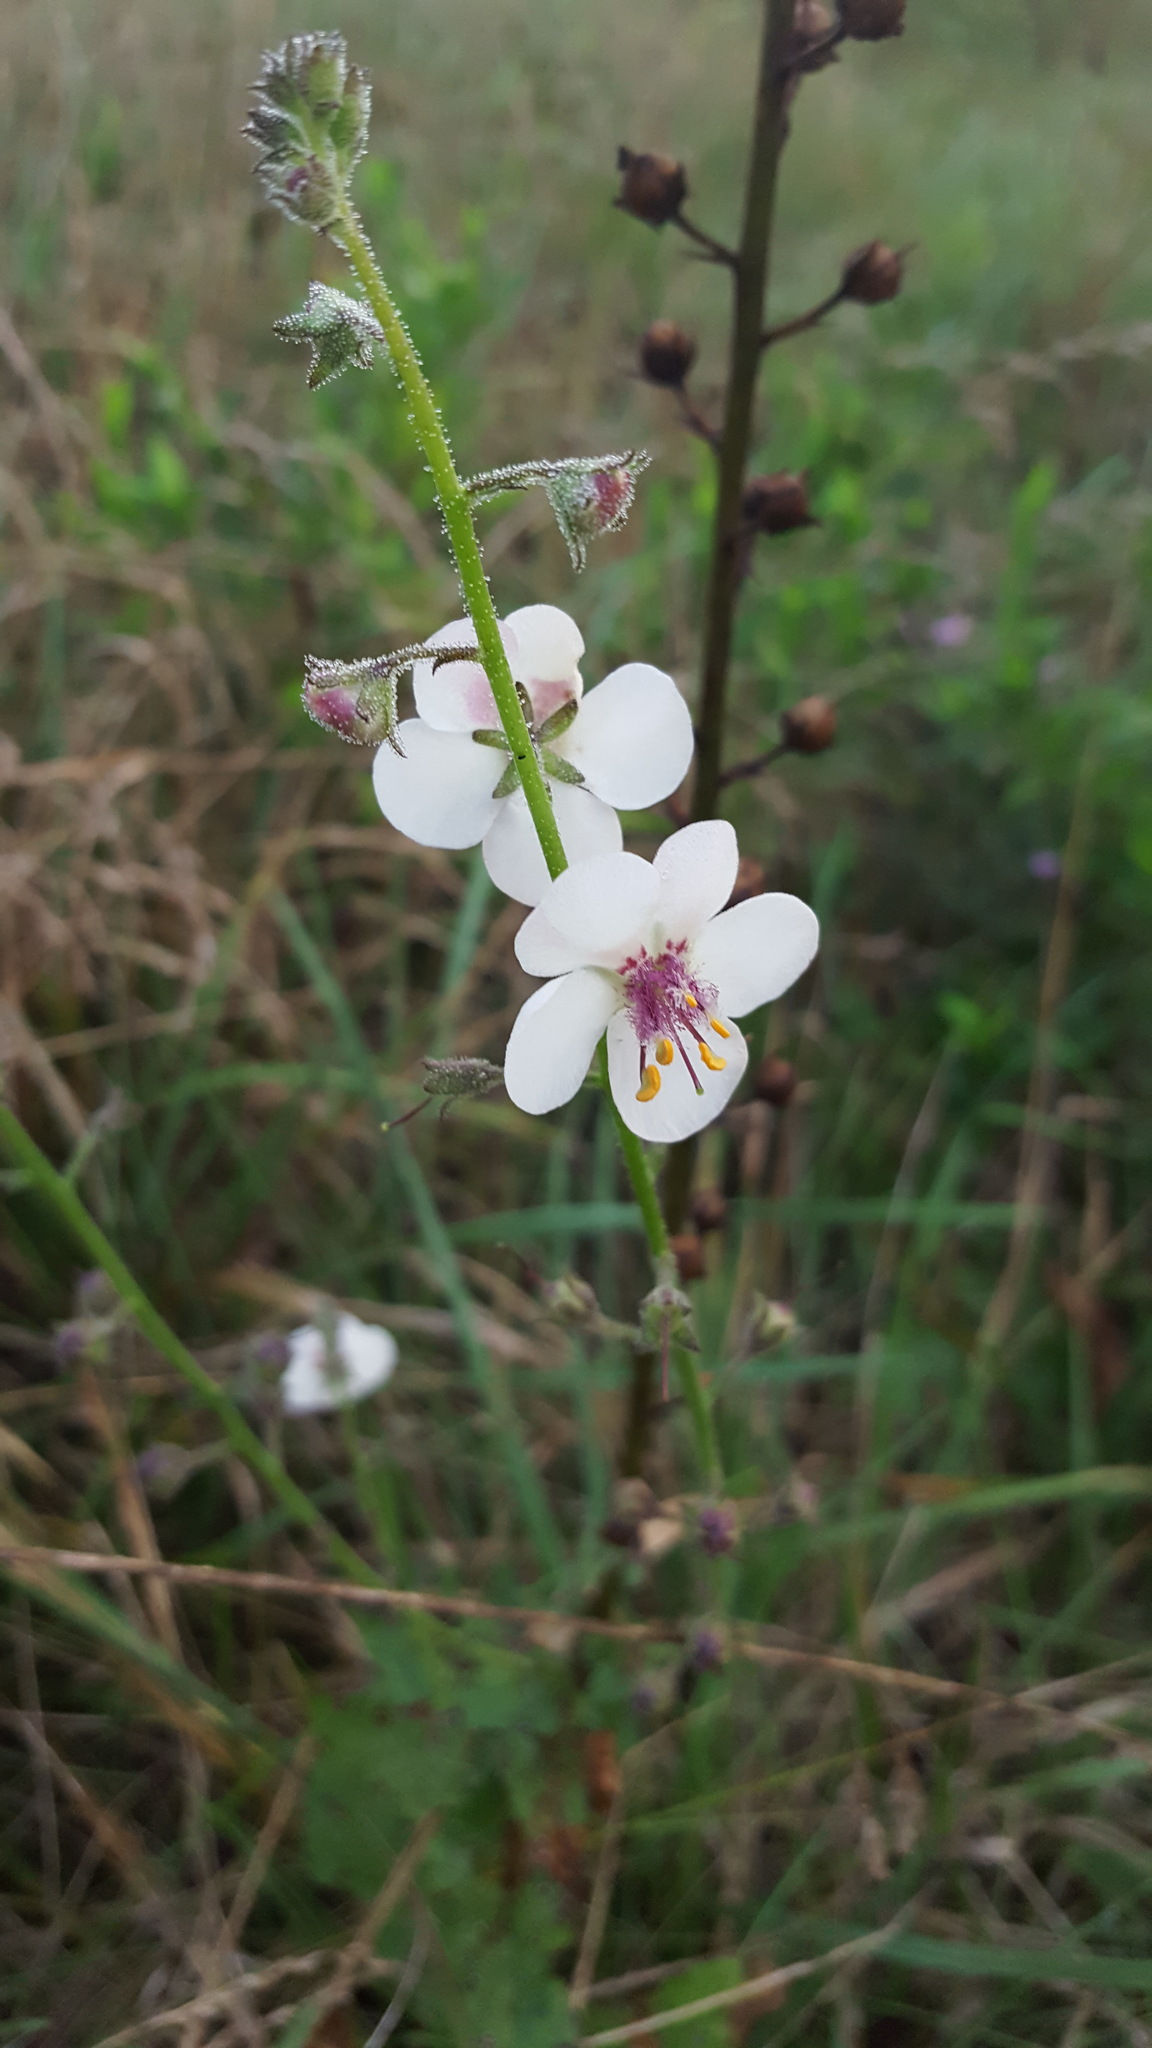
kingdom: Plantae
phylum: Tracheophyta
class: Magnoliopsida
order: Lamiales
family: Scrophulariaceae
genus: Verbascum
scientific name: Verbascum blattaria
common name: Moth mullein
